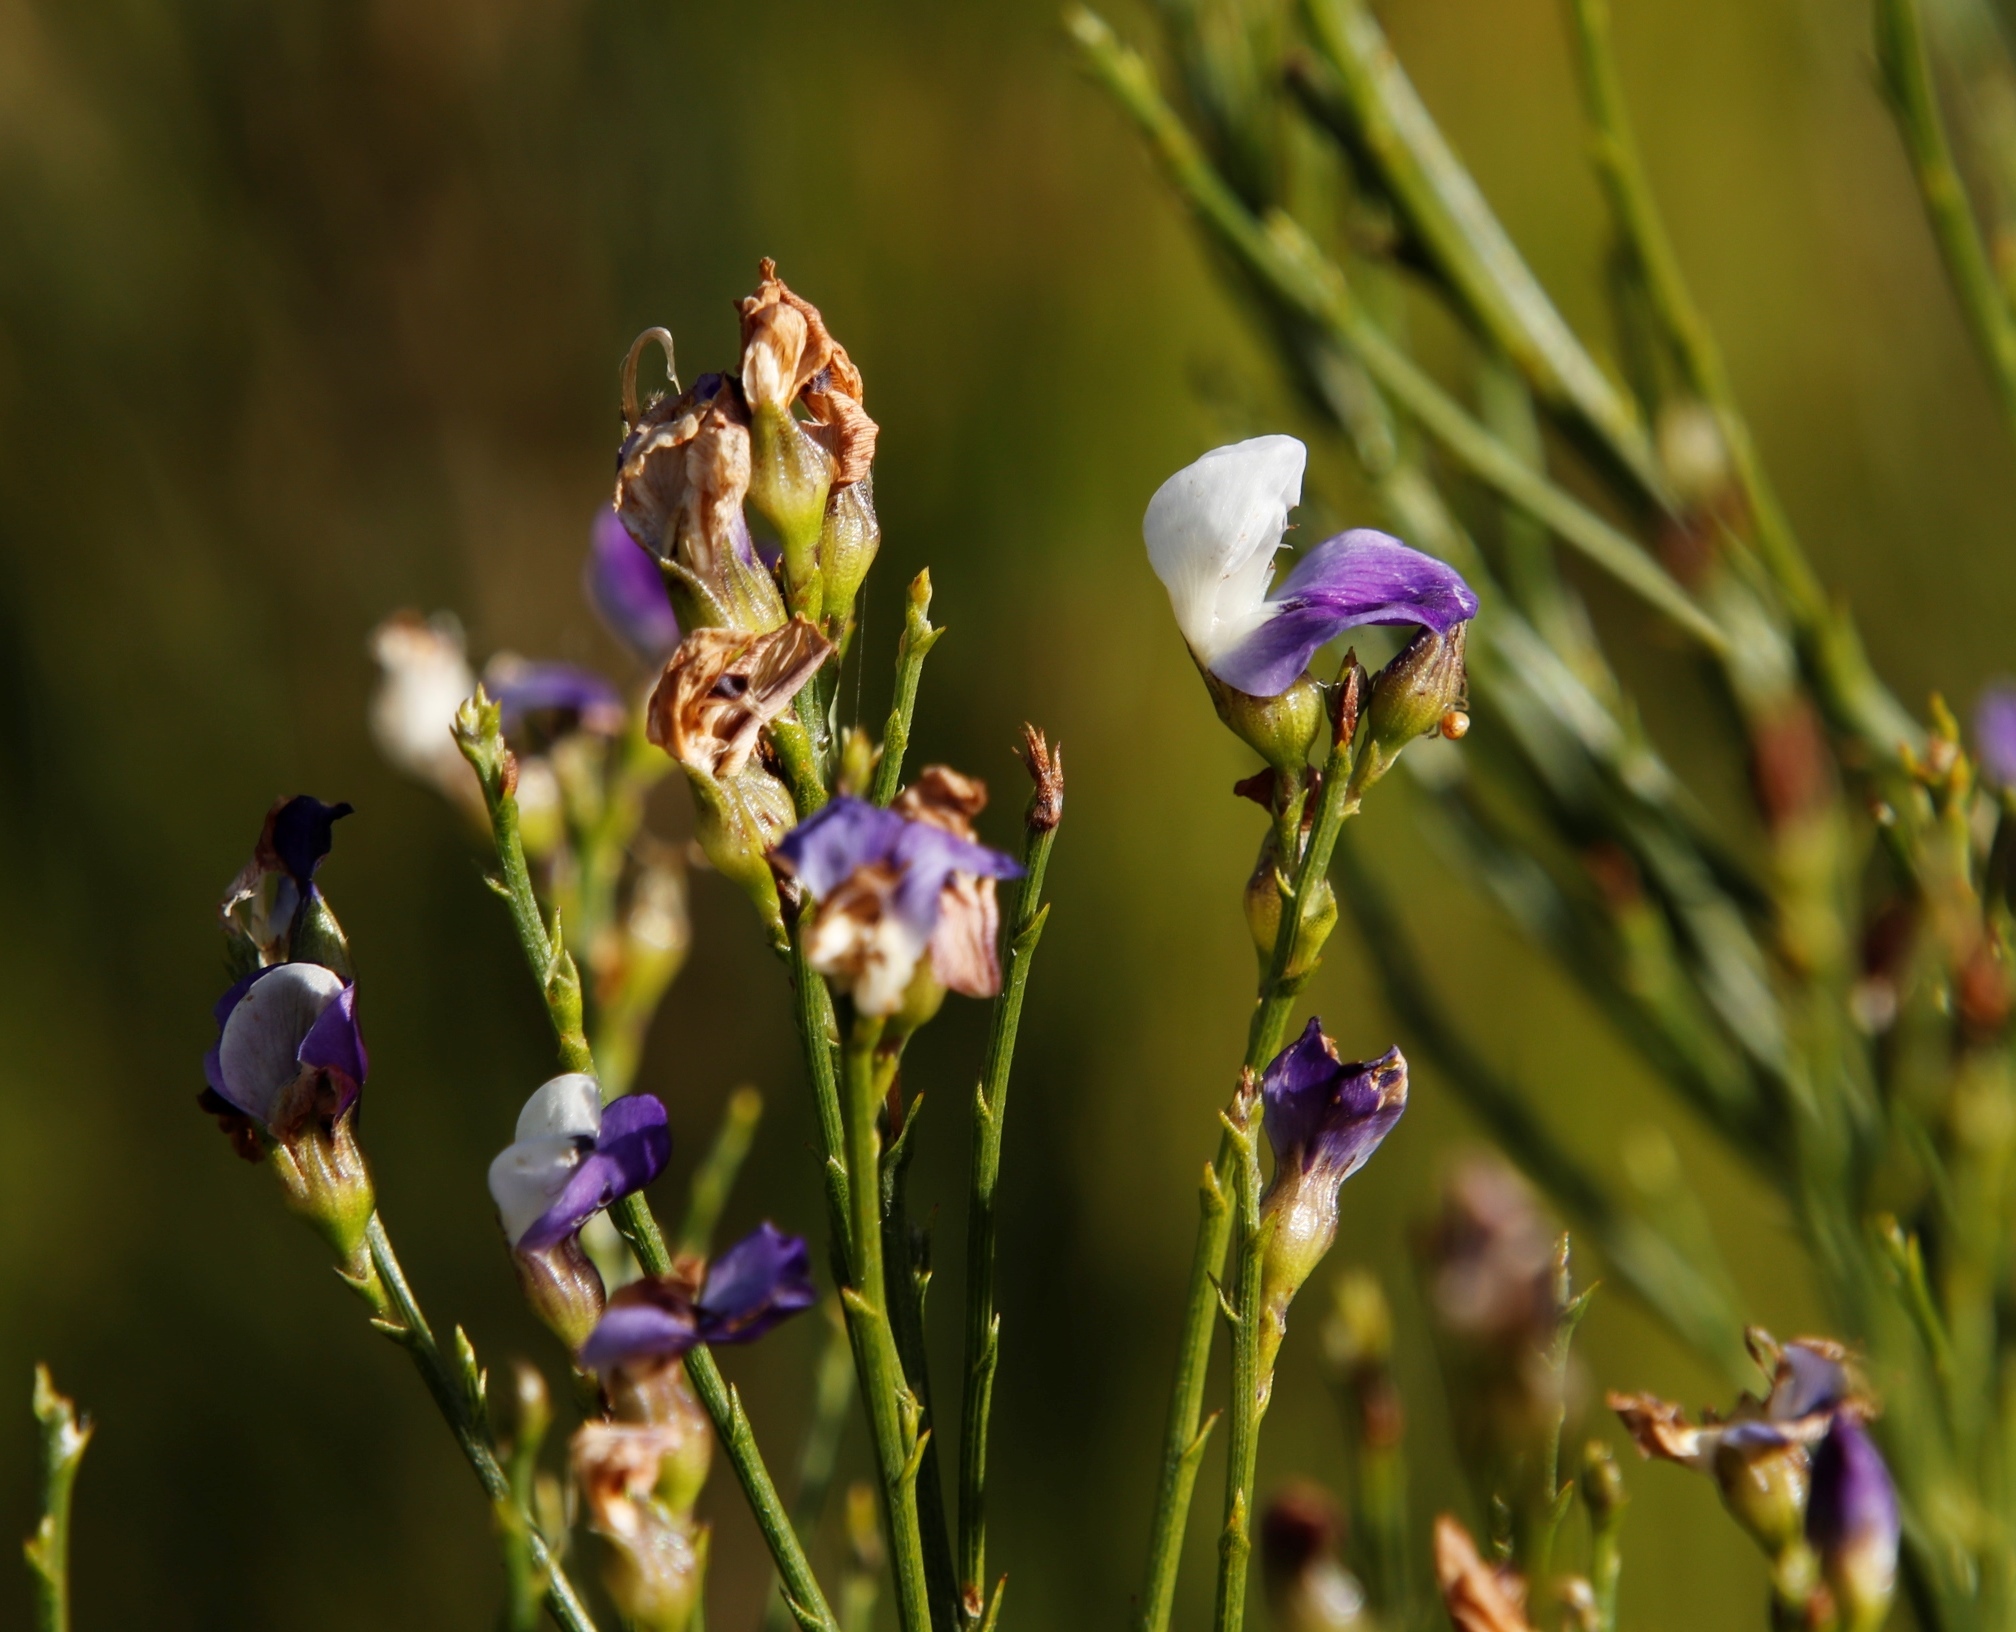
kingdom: Plantae
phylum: Tracheophyta
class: Magnoliopsida
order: Fabales
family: Fabaceae
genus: Psoralea
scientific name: Psoralea usitata
